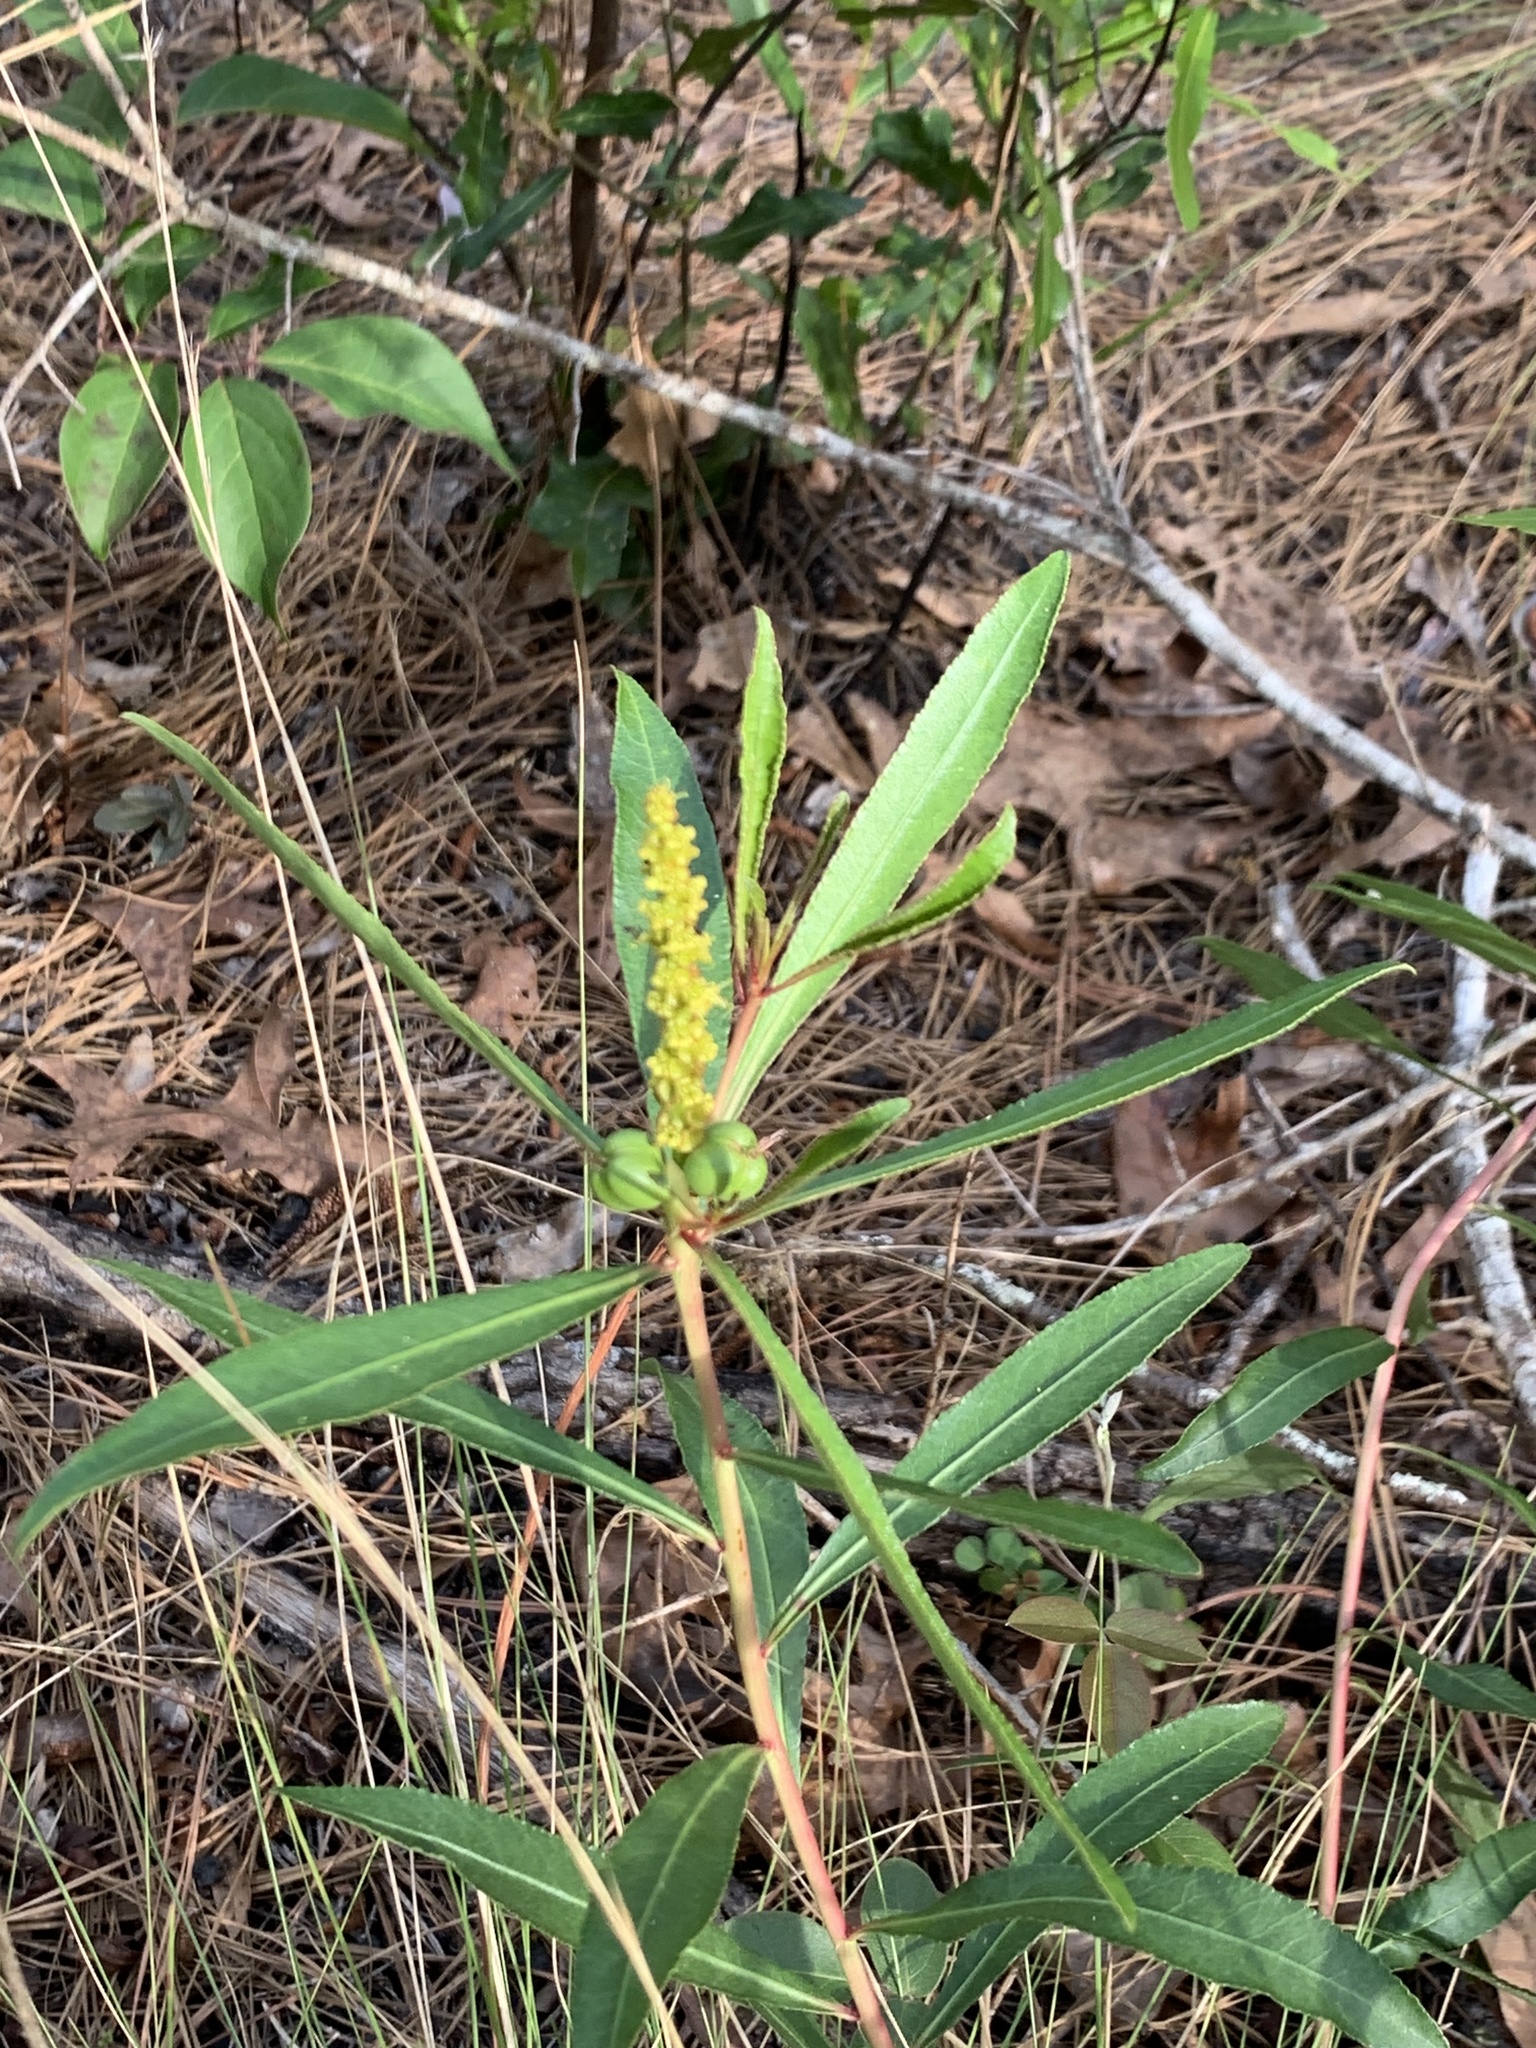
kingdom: Plantae
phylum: Tracheophyta
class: Magnoliopsida
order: Malpighiales
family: Euphorbiaceae
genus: Stillingia
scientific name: Stillingia sylvatica
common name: Queen's-delight
